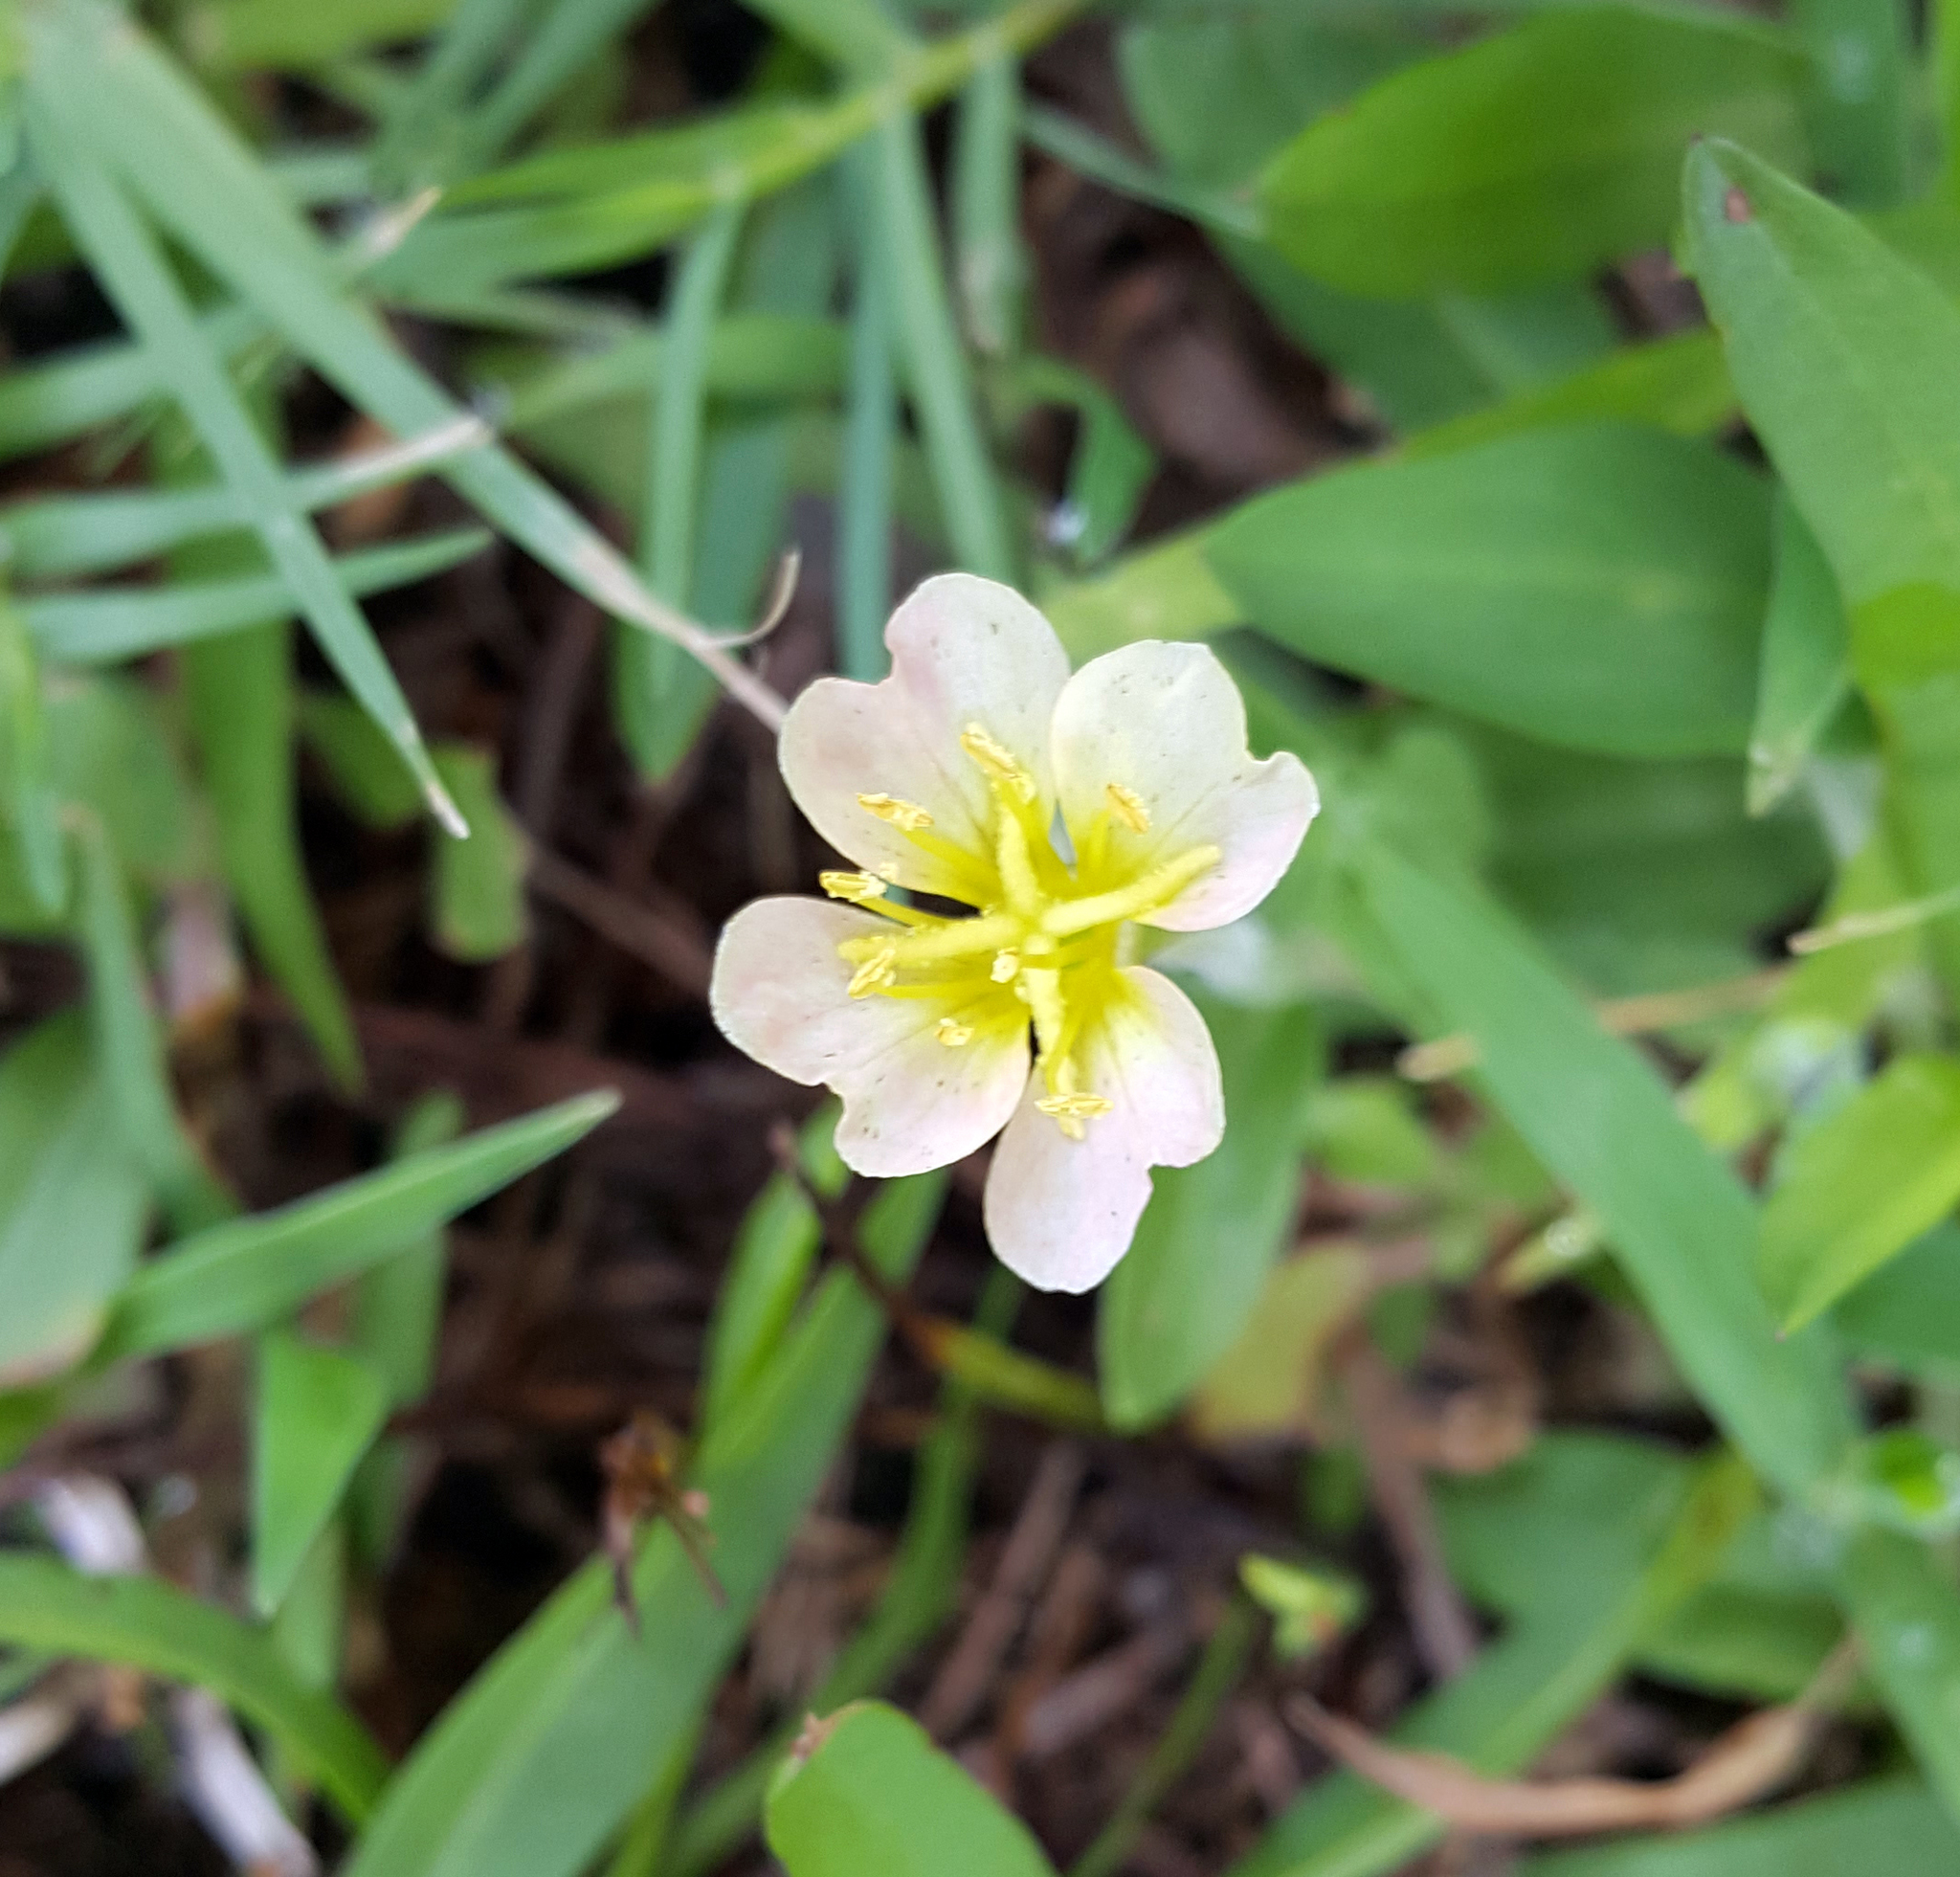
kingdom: Plantae
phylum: Tracheophyta
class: Magnoliopsida
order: Myrtales
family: Onagraceae
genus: Oenothera
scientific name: Oenothera laciniata
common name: Cut-leaved evening-primrose
